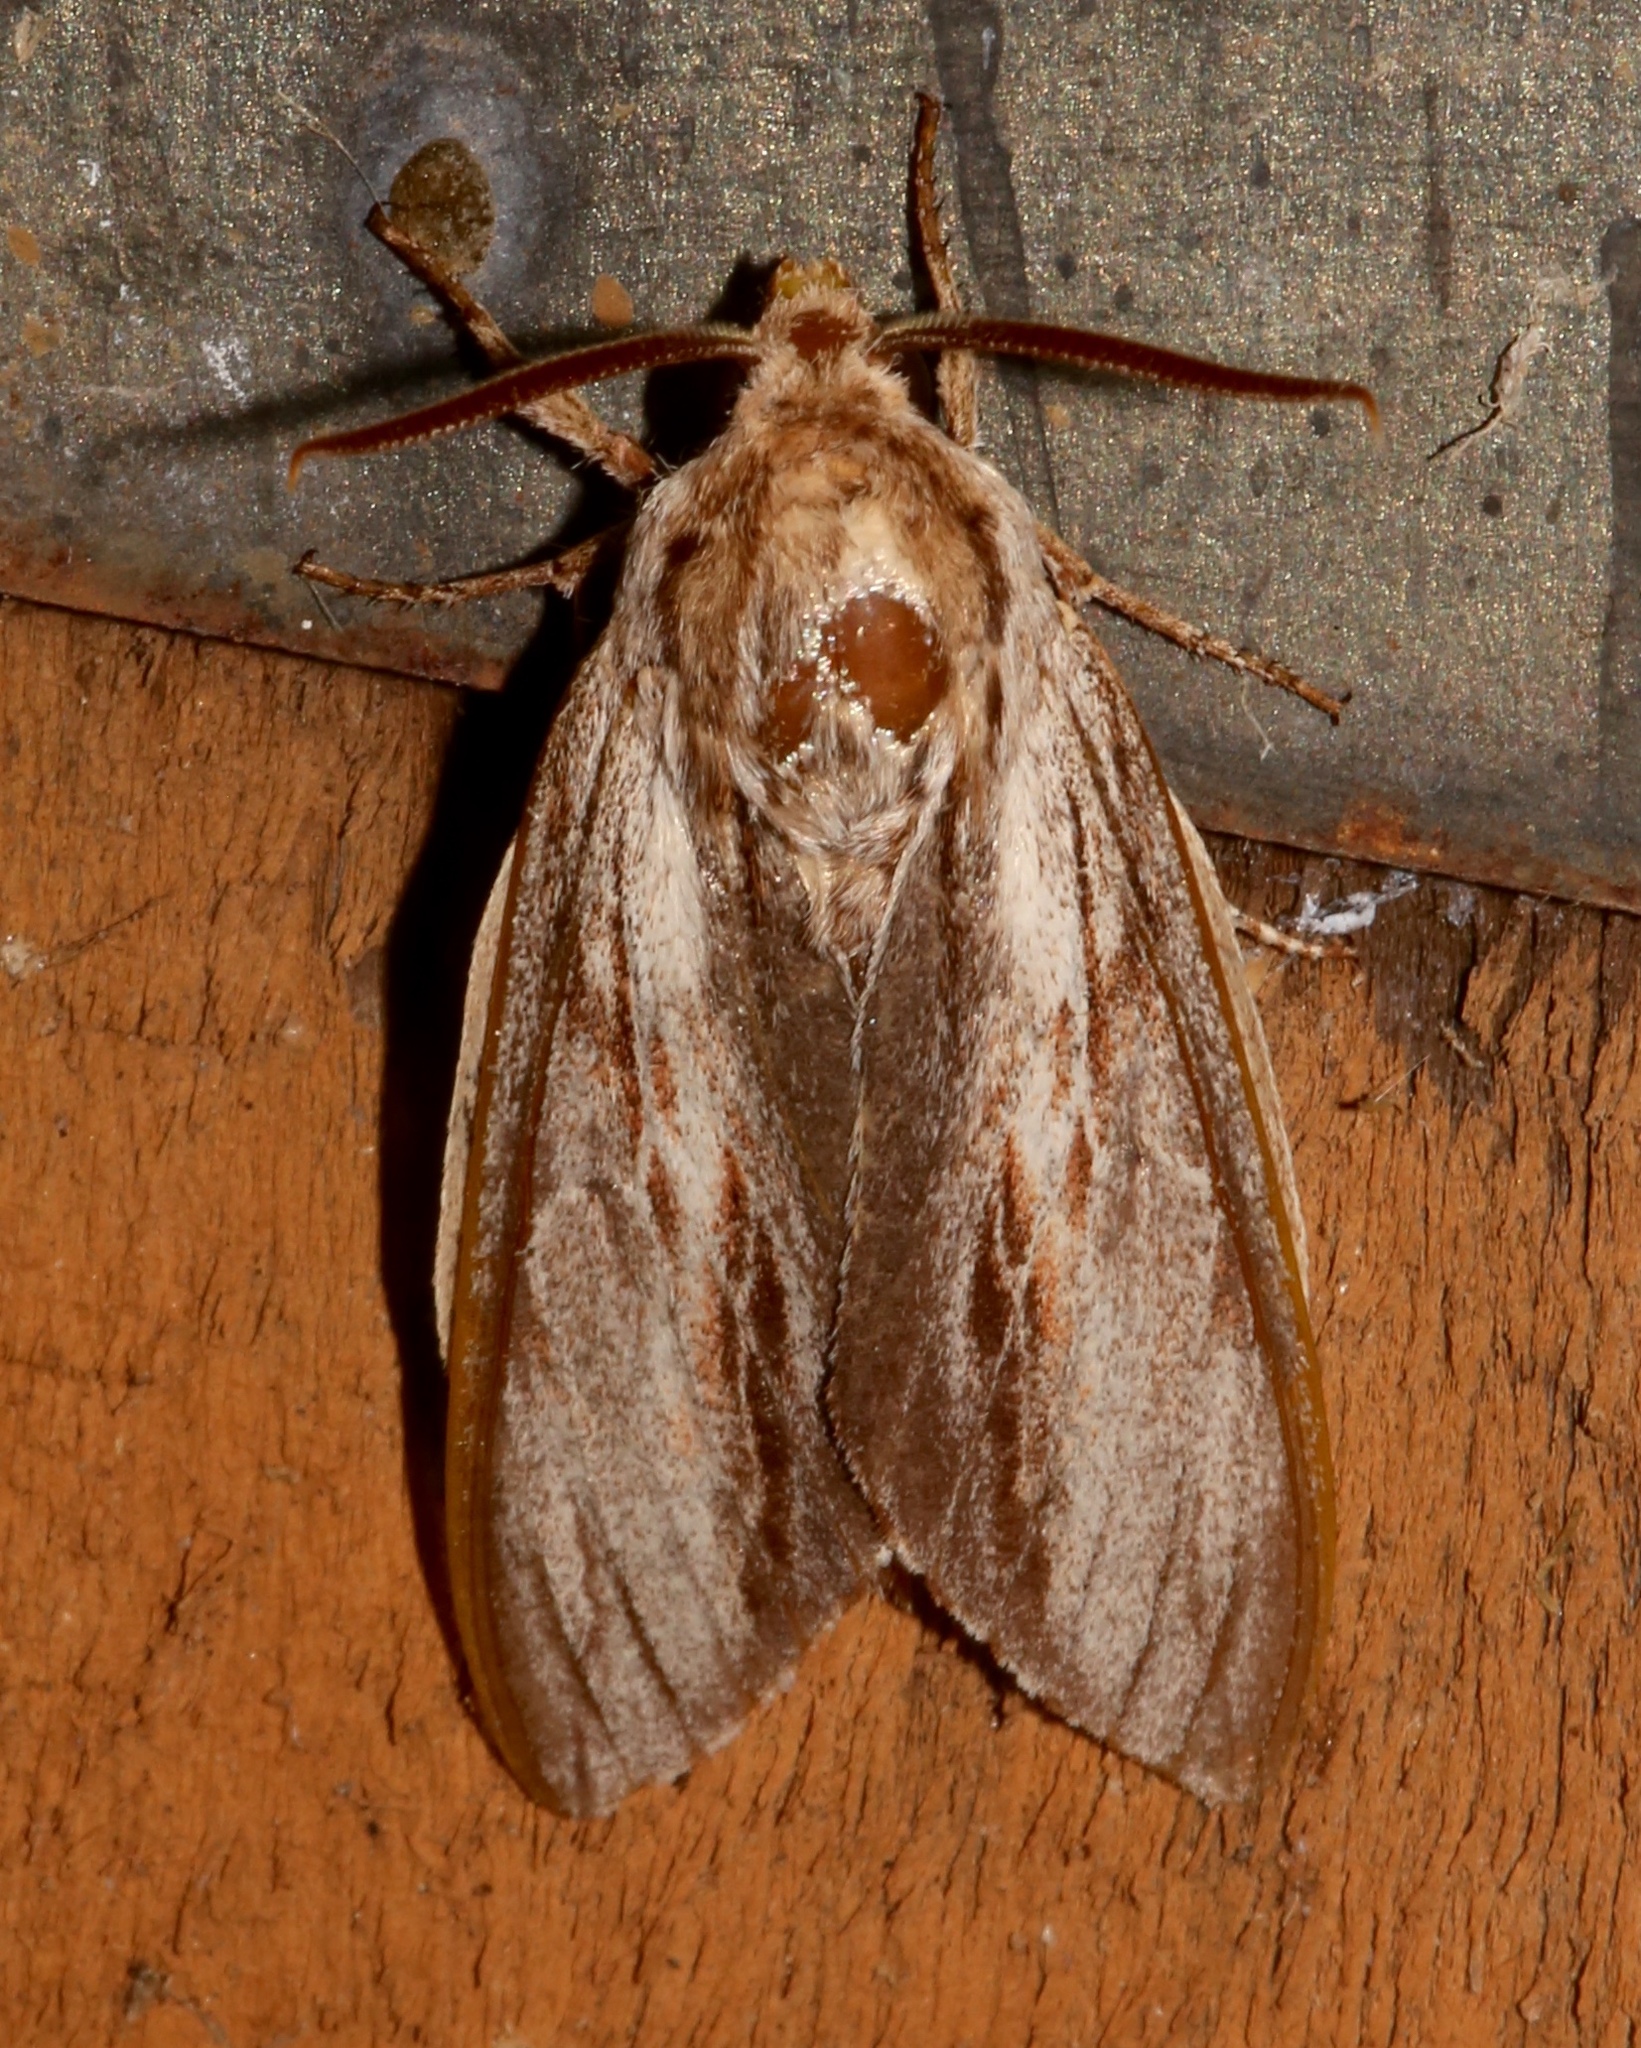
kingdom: Animalia
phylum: Arthropoda
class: Insecta
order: Lepidoptera
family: Sphingidae
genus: Isoparce
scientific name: Isoparce cupressi
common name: Cypress sphinx
